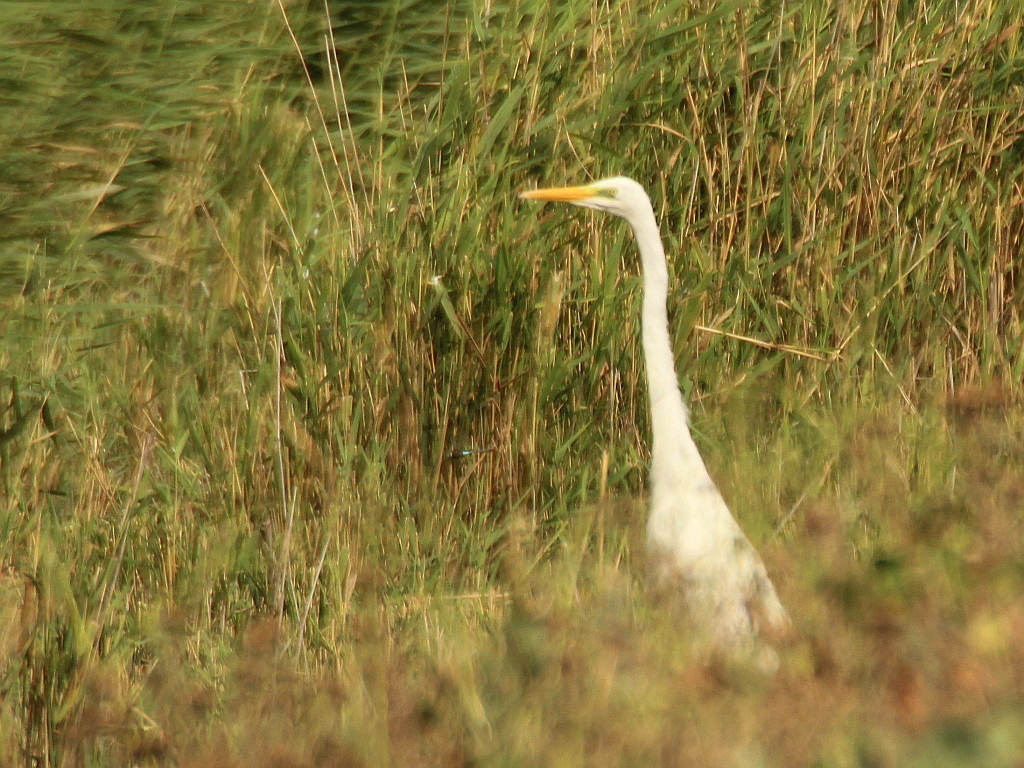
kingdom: Animalia
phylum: Chordata
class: Aves
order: Pelecaniformes
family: Ardeidae
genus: Ardea
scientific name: Ardea alba
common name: Great egret
